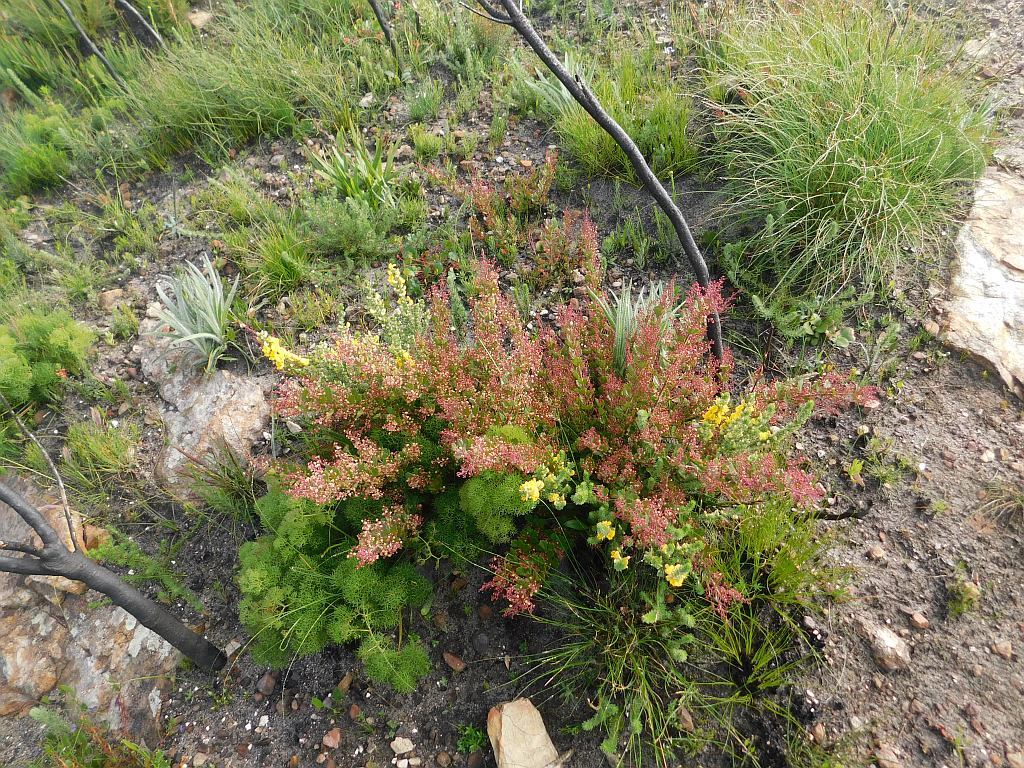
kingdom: Plantae
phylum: Tracheophyta
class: Magnoliopsida
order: Sapindales
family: Anacardiaceae
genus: Searsia
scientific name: Searsia scytophylla
